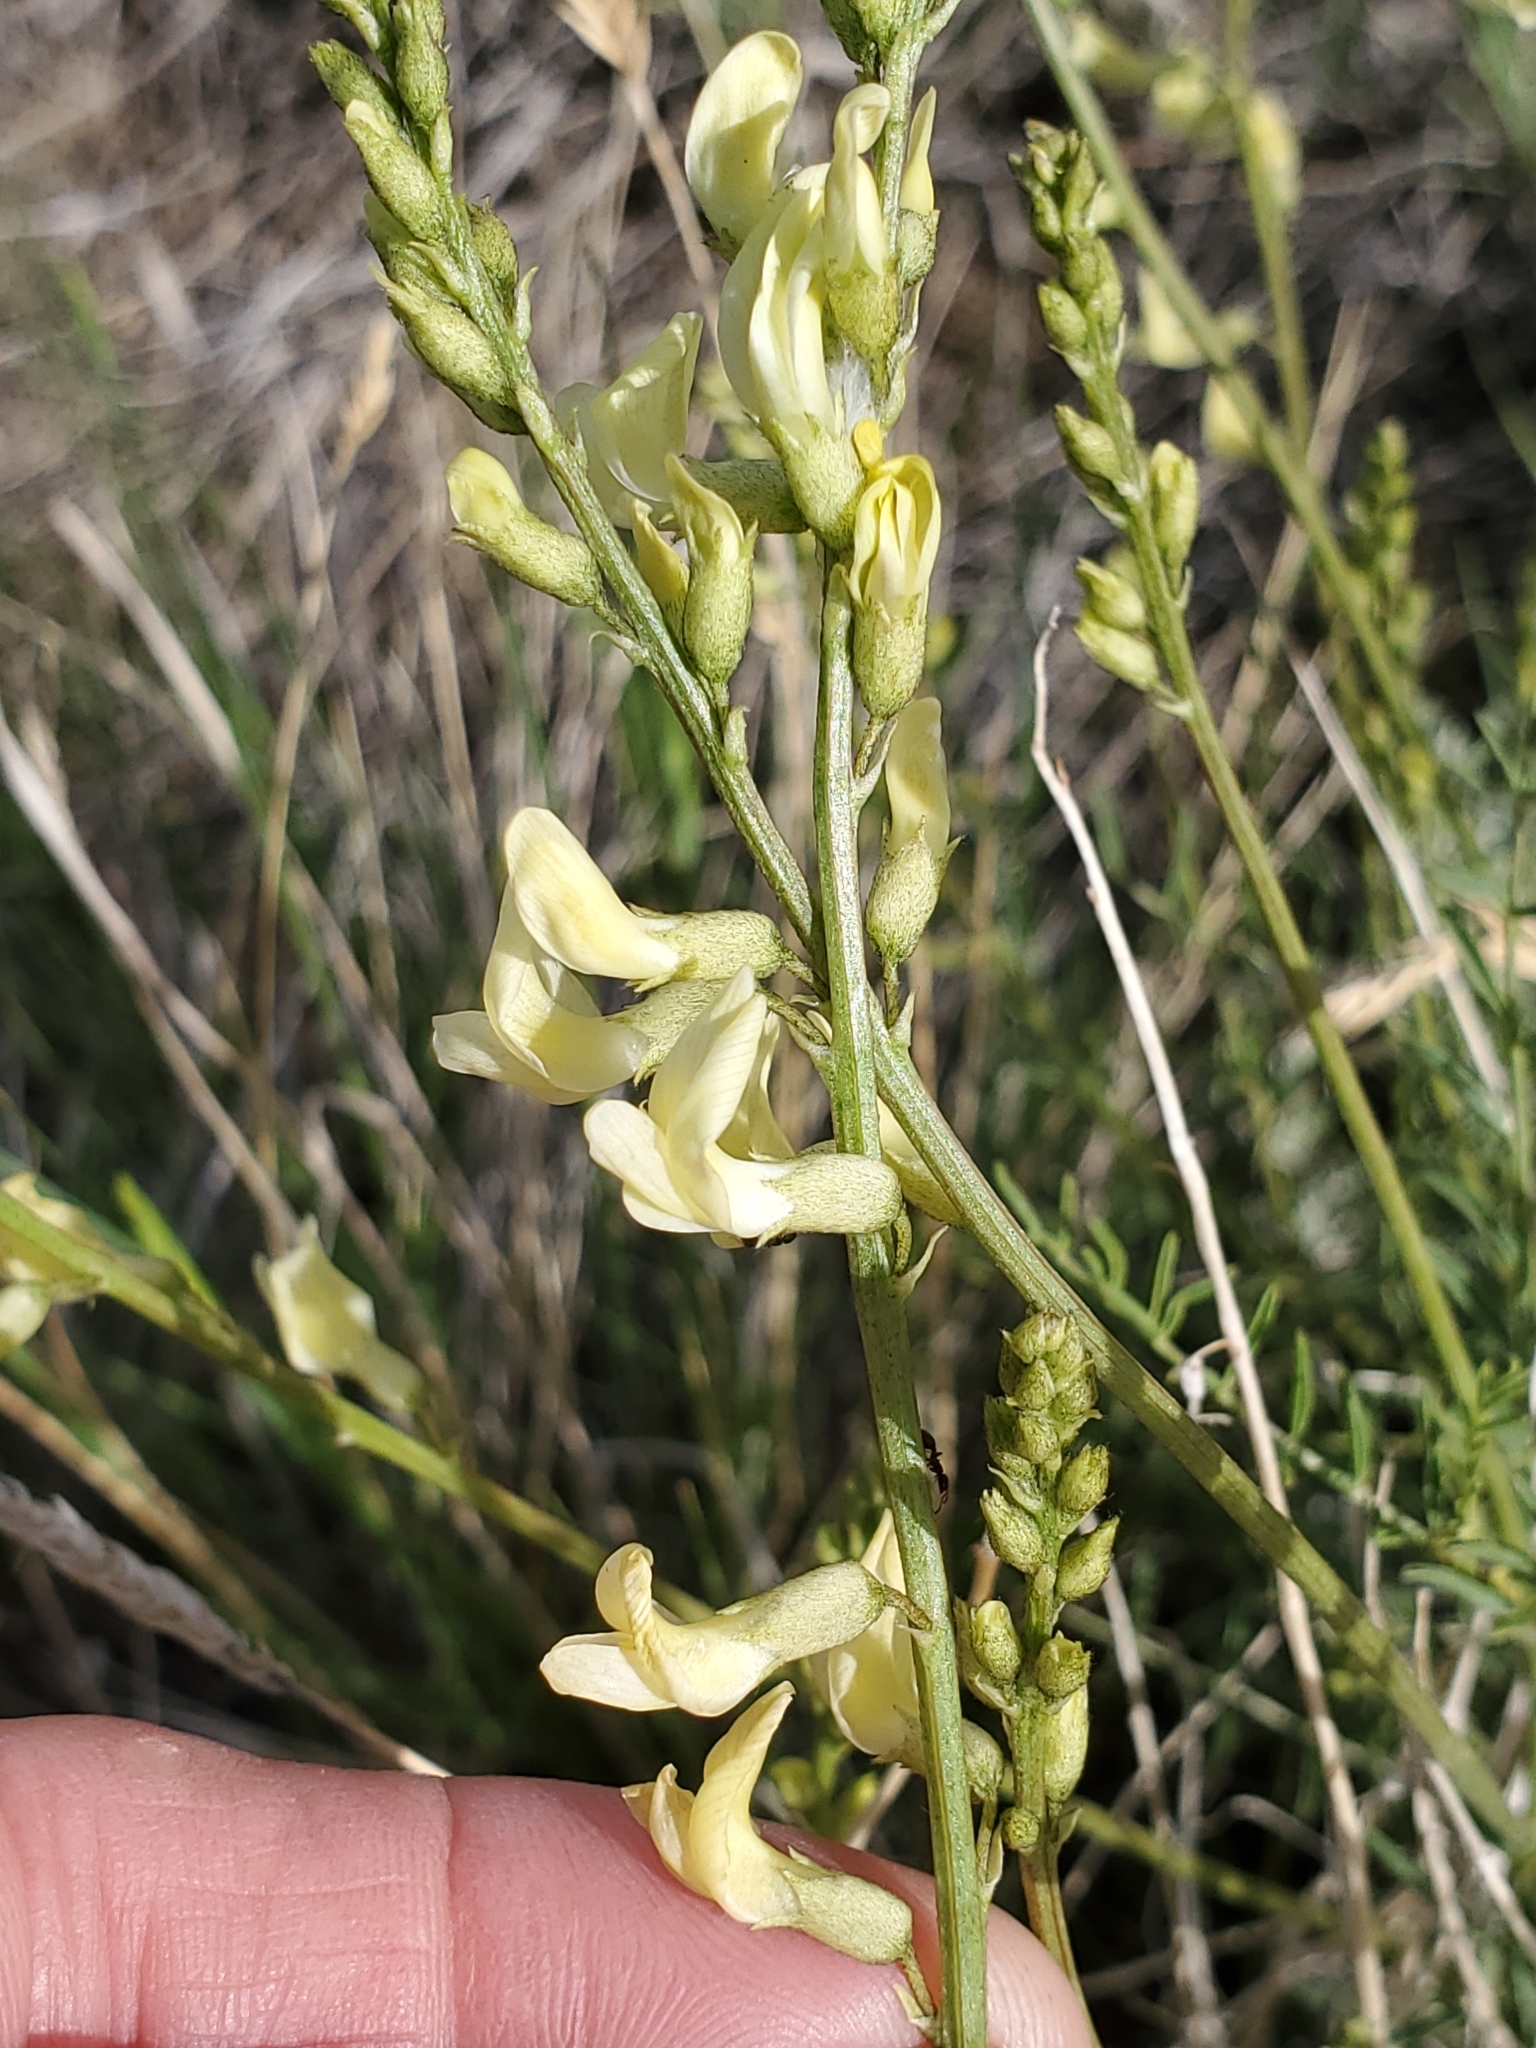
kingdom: Plantae
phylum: Tracheophyta
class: Magnoliopsida
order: Fabales
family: Fabaceae
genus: Astragalus
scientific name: Astragalus filipes
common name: Basalt milk-vetch
